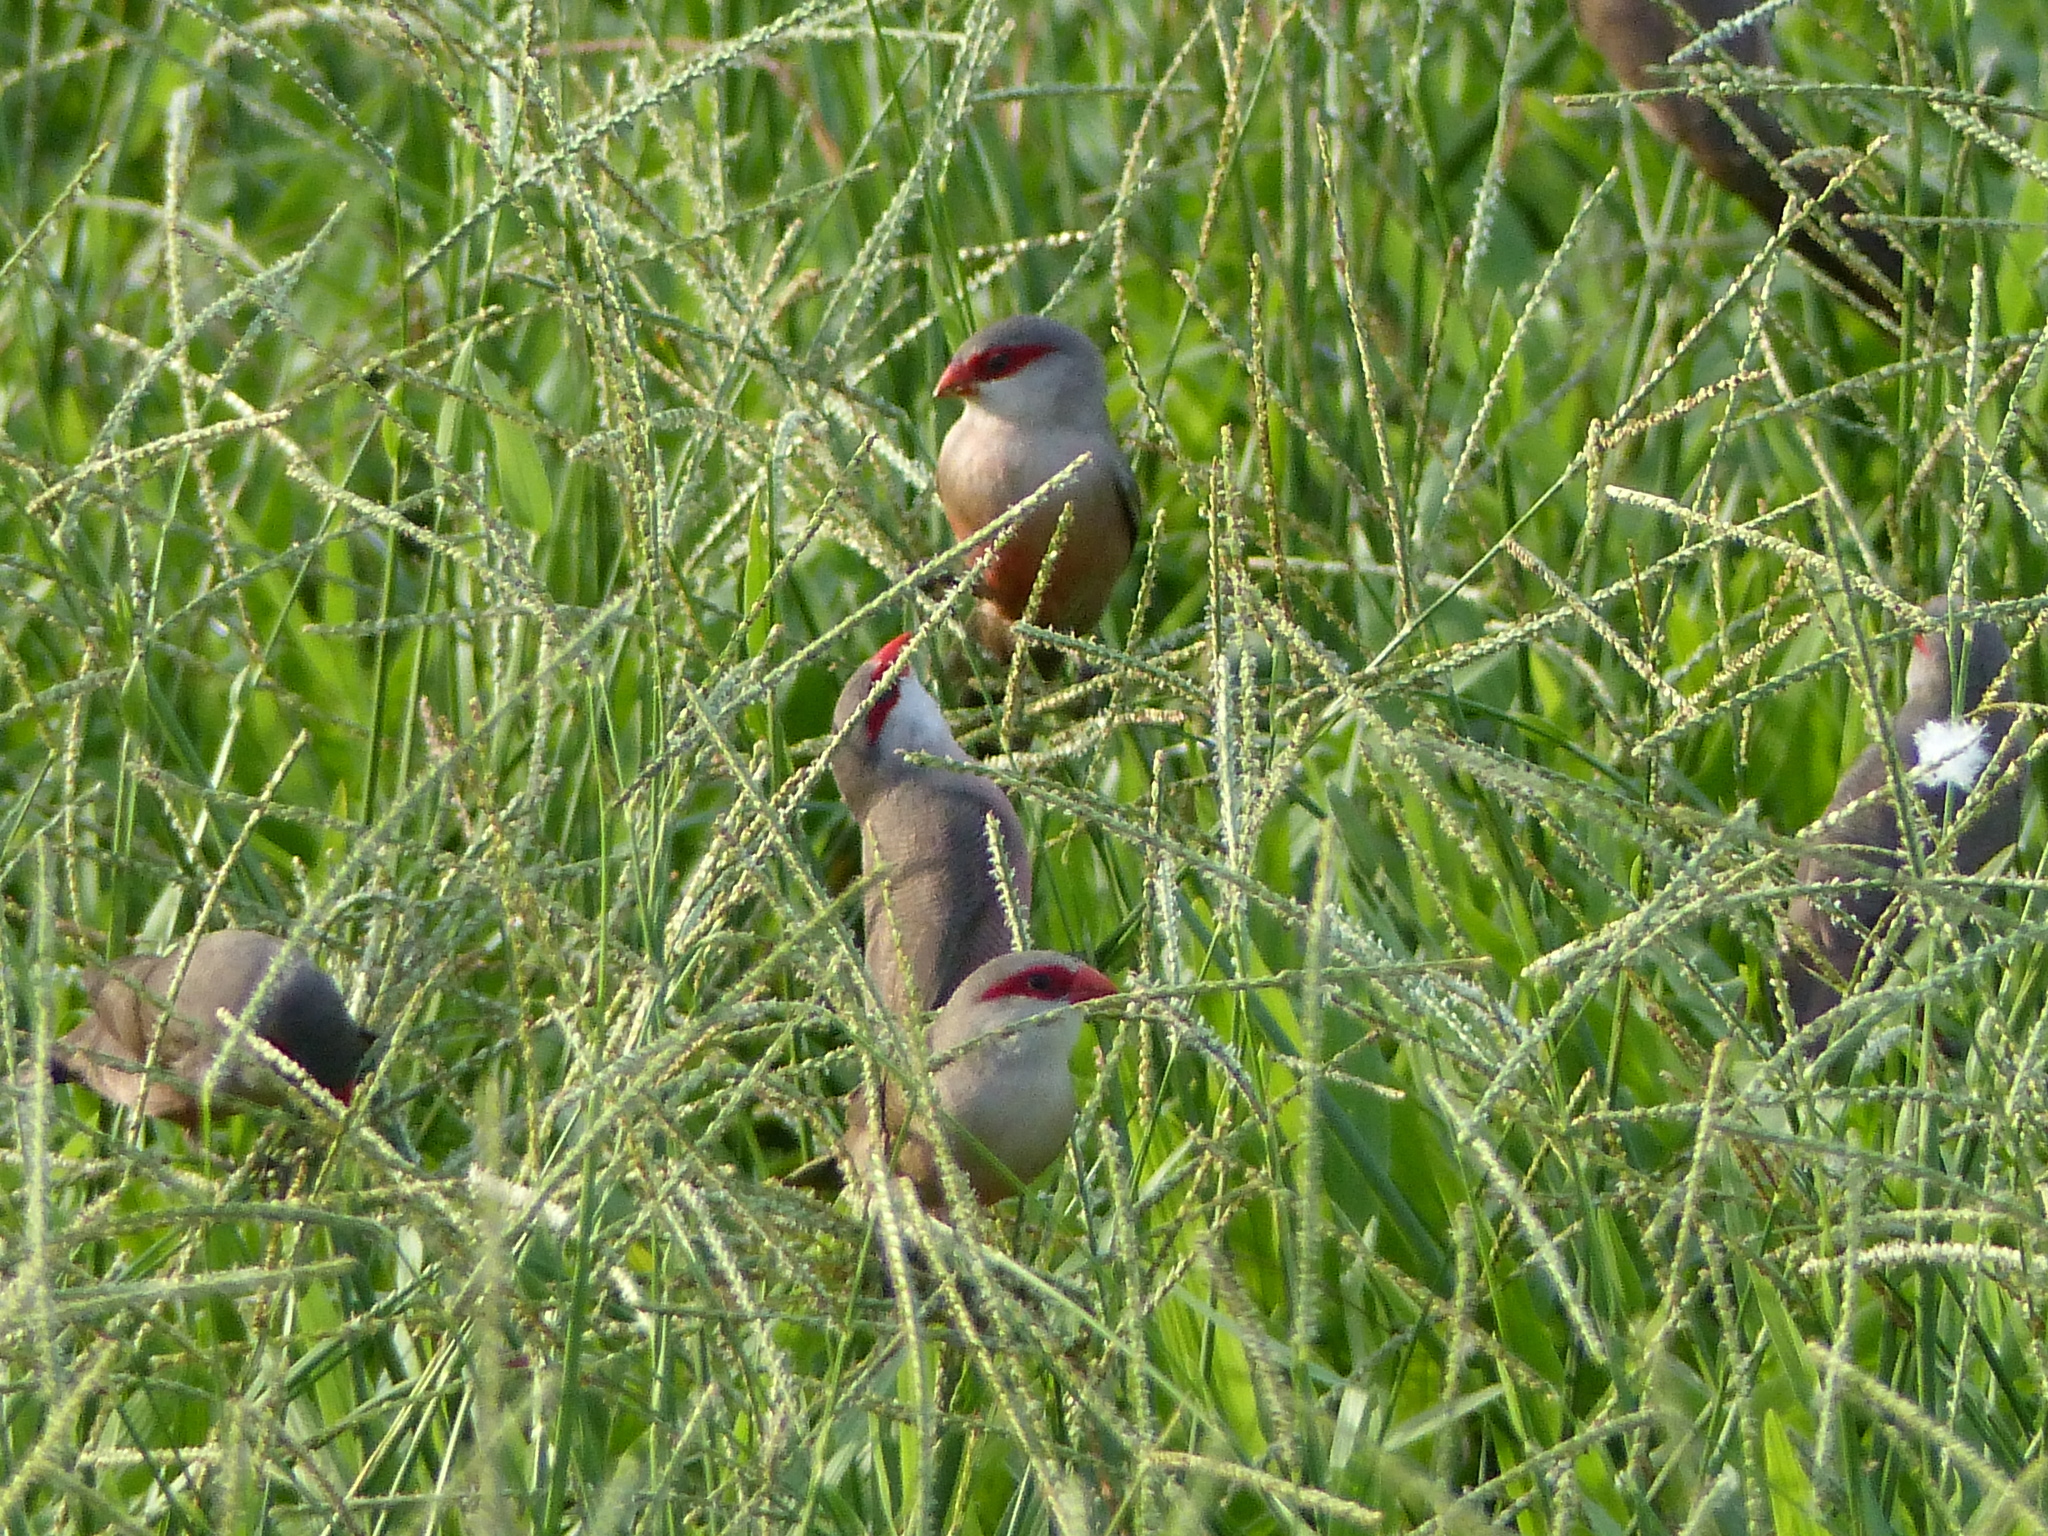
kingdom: Animalia
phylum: Chordata
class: Aves
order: Passeriformes
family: Estrildidae
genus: Estrilda
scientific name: Estrilda astrild
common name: Common waxbill
